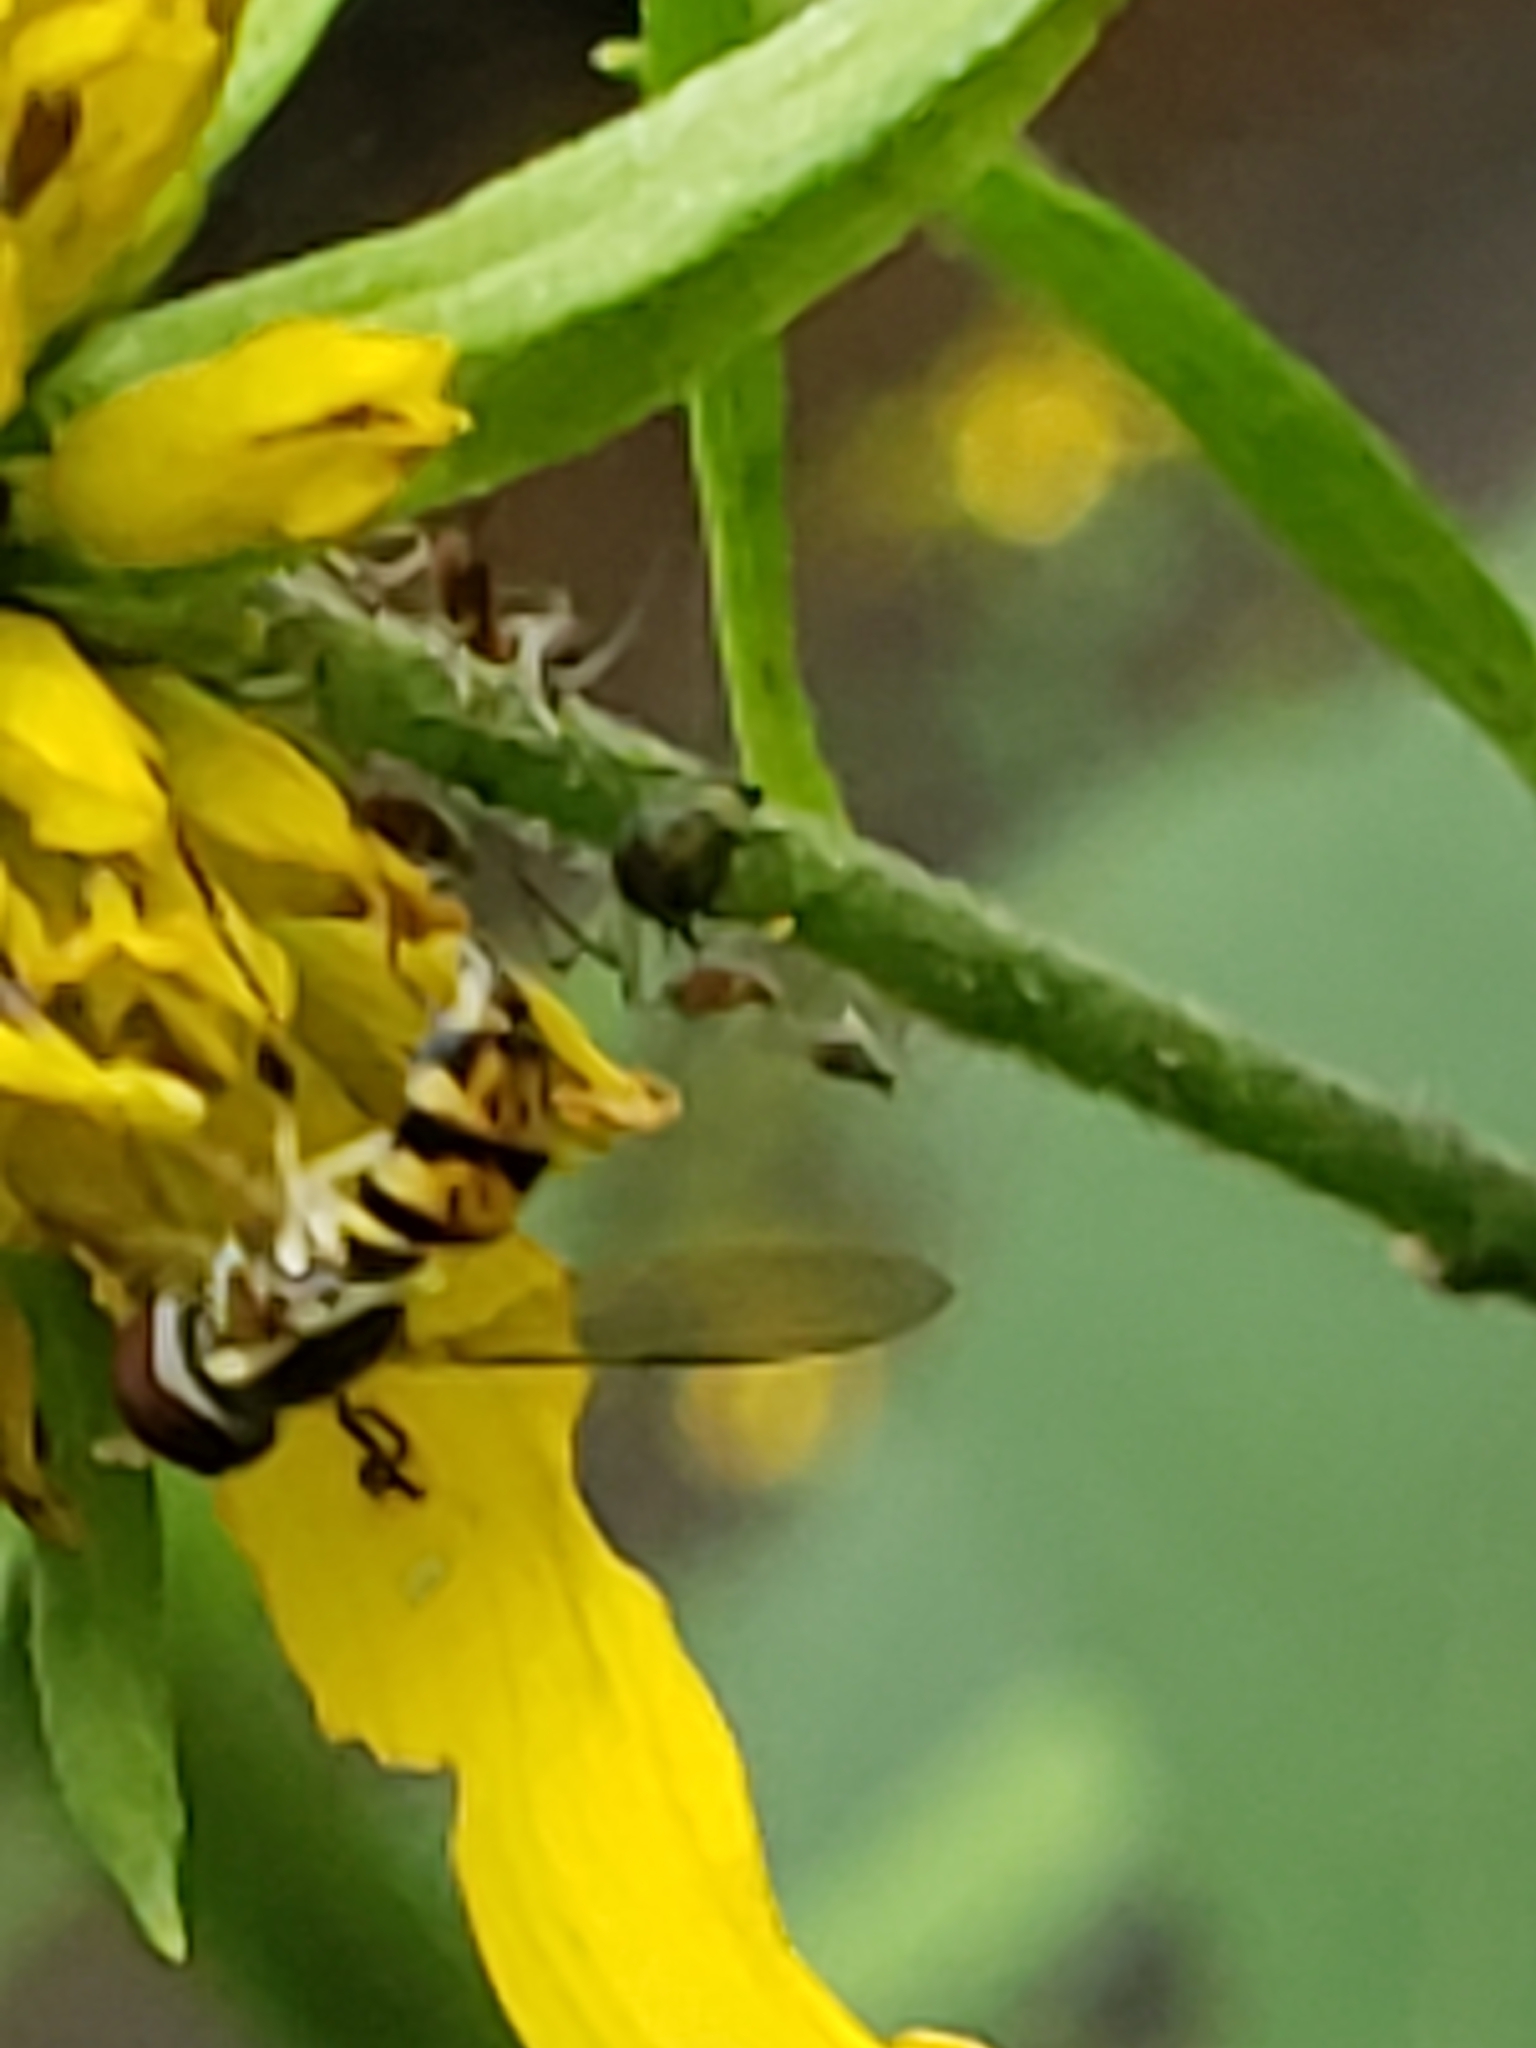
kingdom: Animalia
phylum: Arthropoda
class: Insecta
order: Diptera
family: Syrphidae
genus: Toxomerus
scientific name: Toxomerus geminatus
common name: Eastern calligrapher
